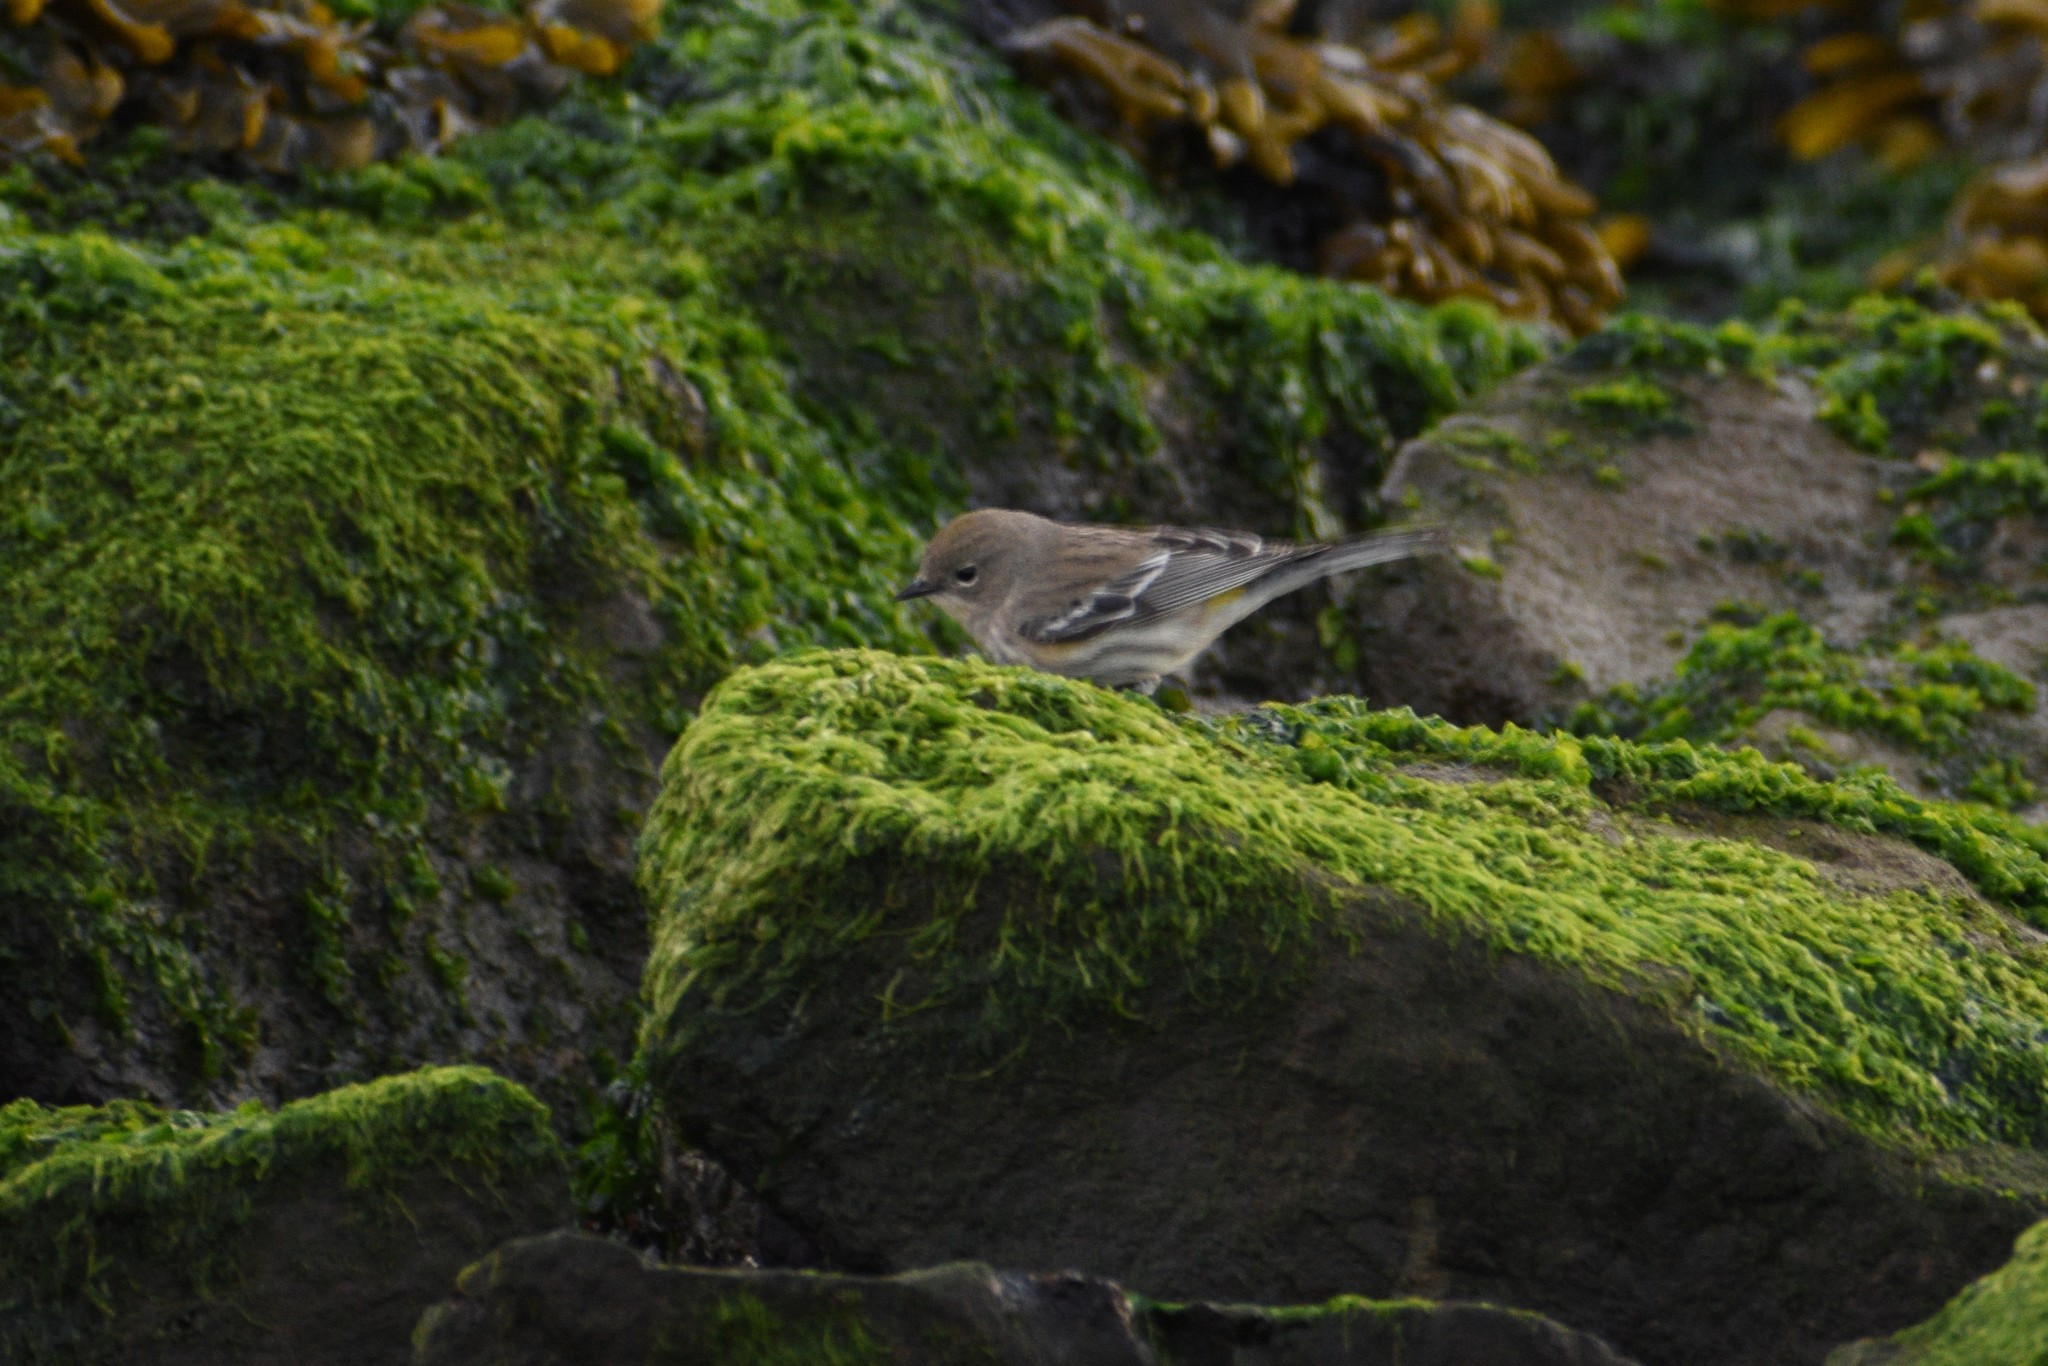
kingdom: Animalia
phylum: Chordata
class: Aves
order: Passeriformes
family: Parulidae
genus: Setophaga
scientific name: Setophaga coronata
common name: Myrtle warbler
